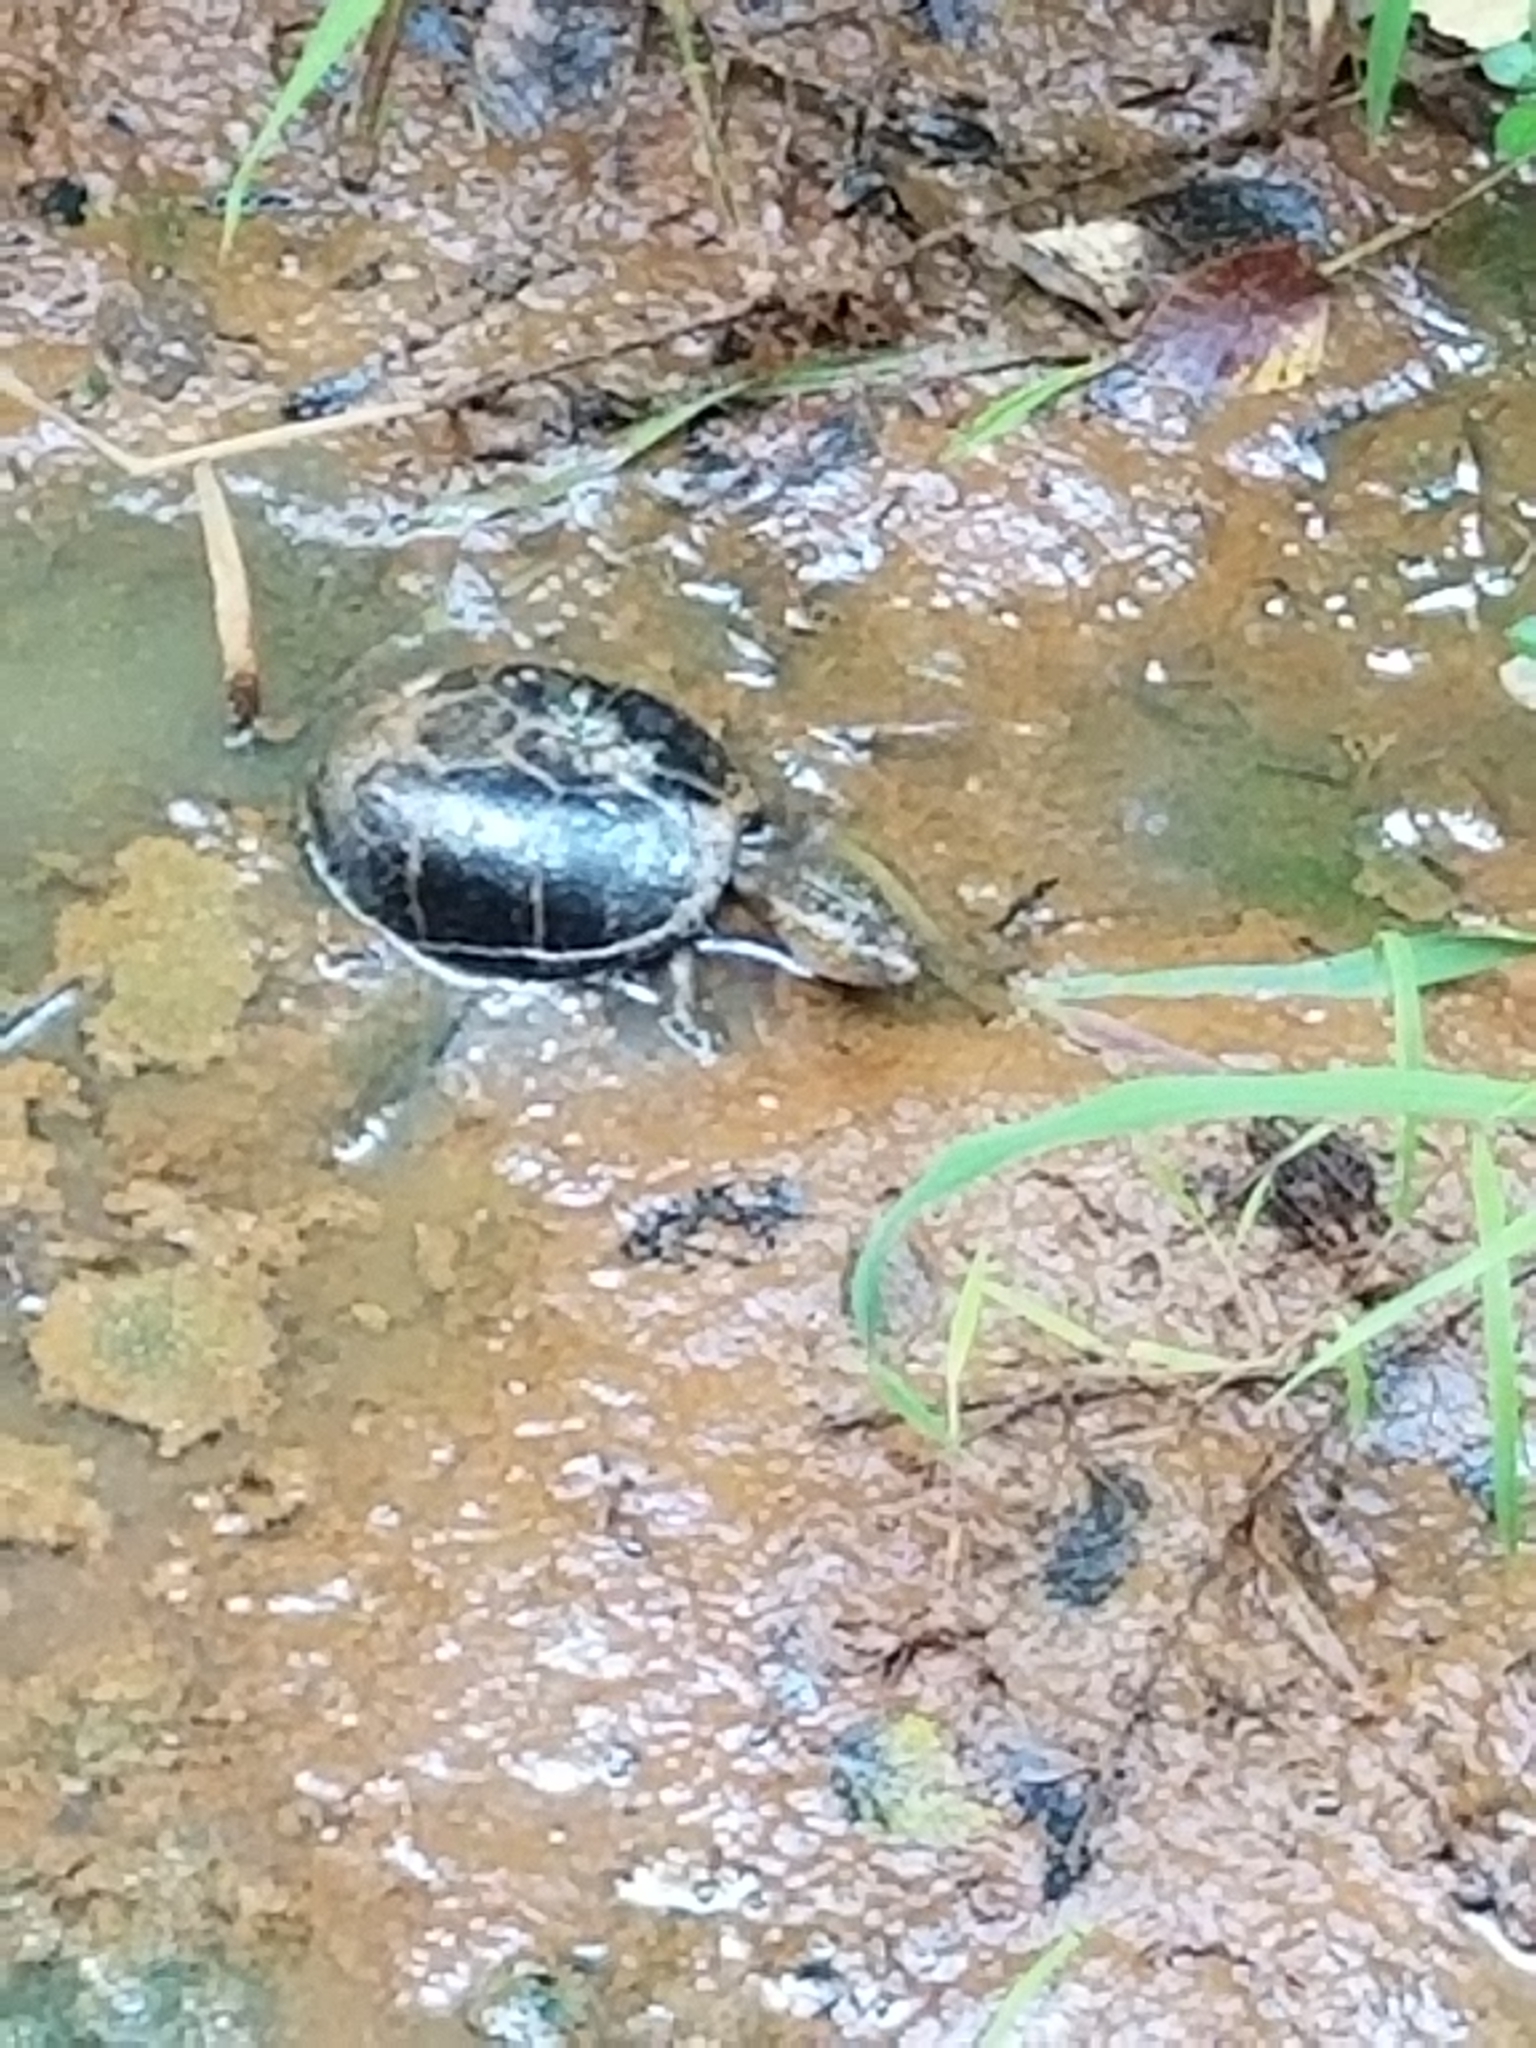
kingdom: Animalia
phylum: Chordata
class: Testudines
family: Kinosternidae
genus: Sternotherus
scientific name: Sternotherus odoratus
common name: Common musk turtle
